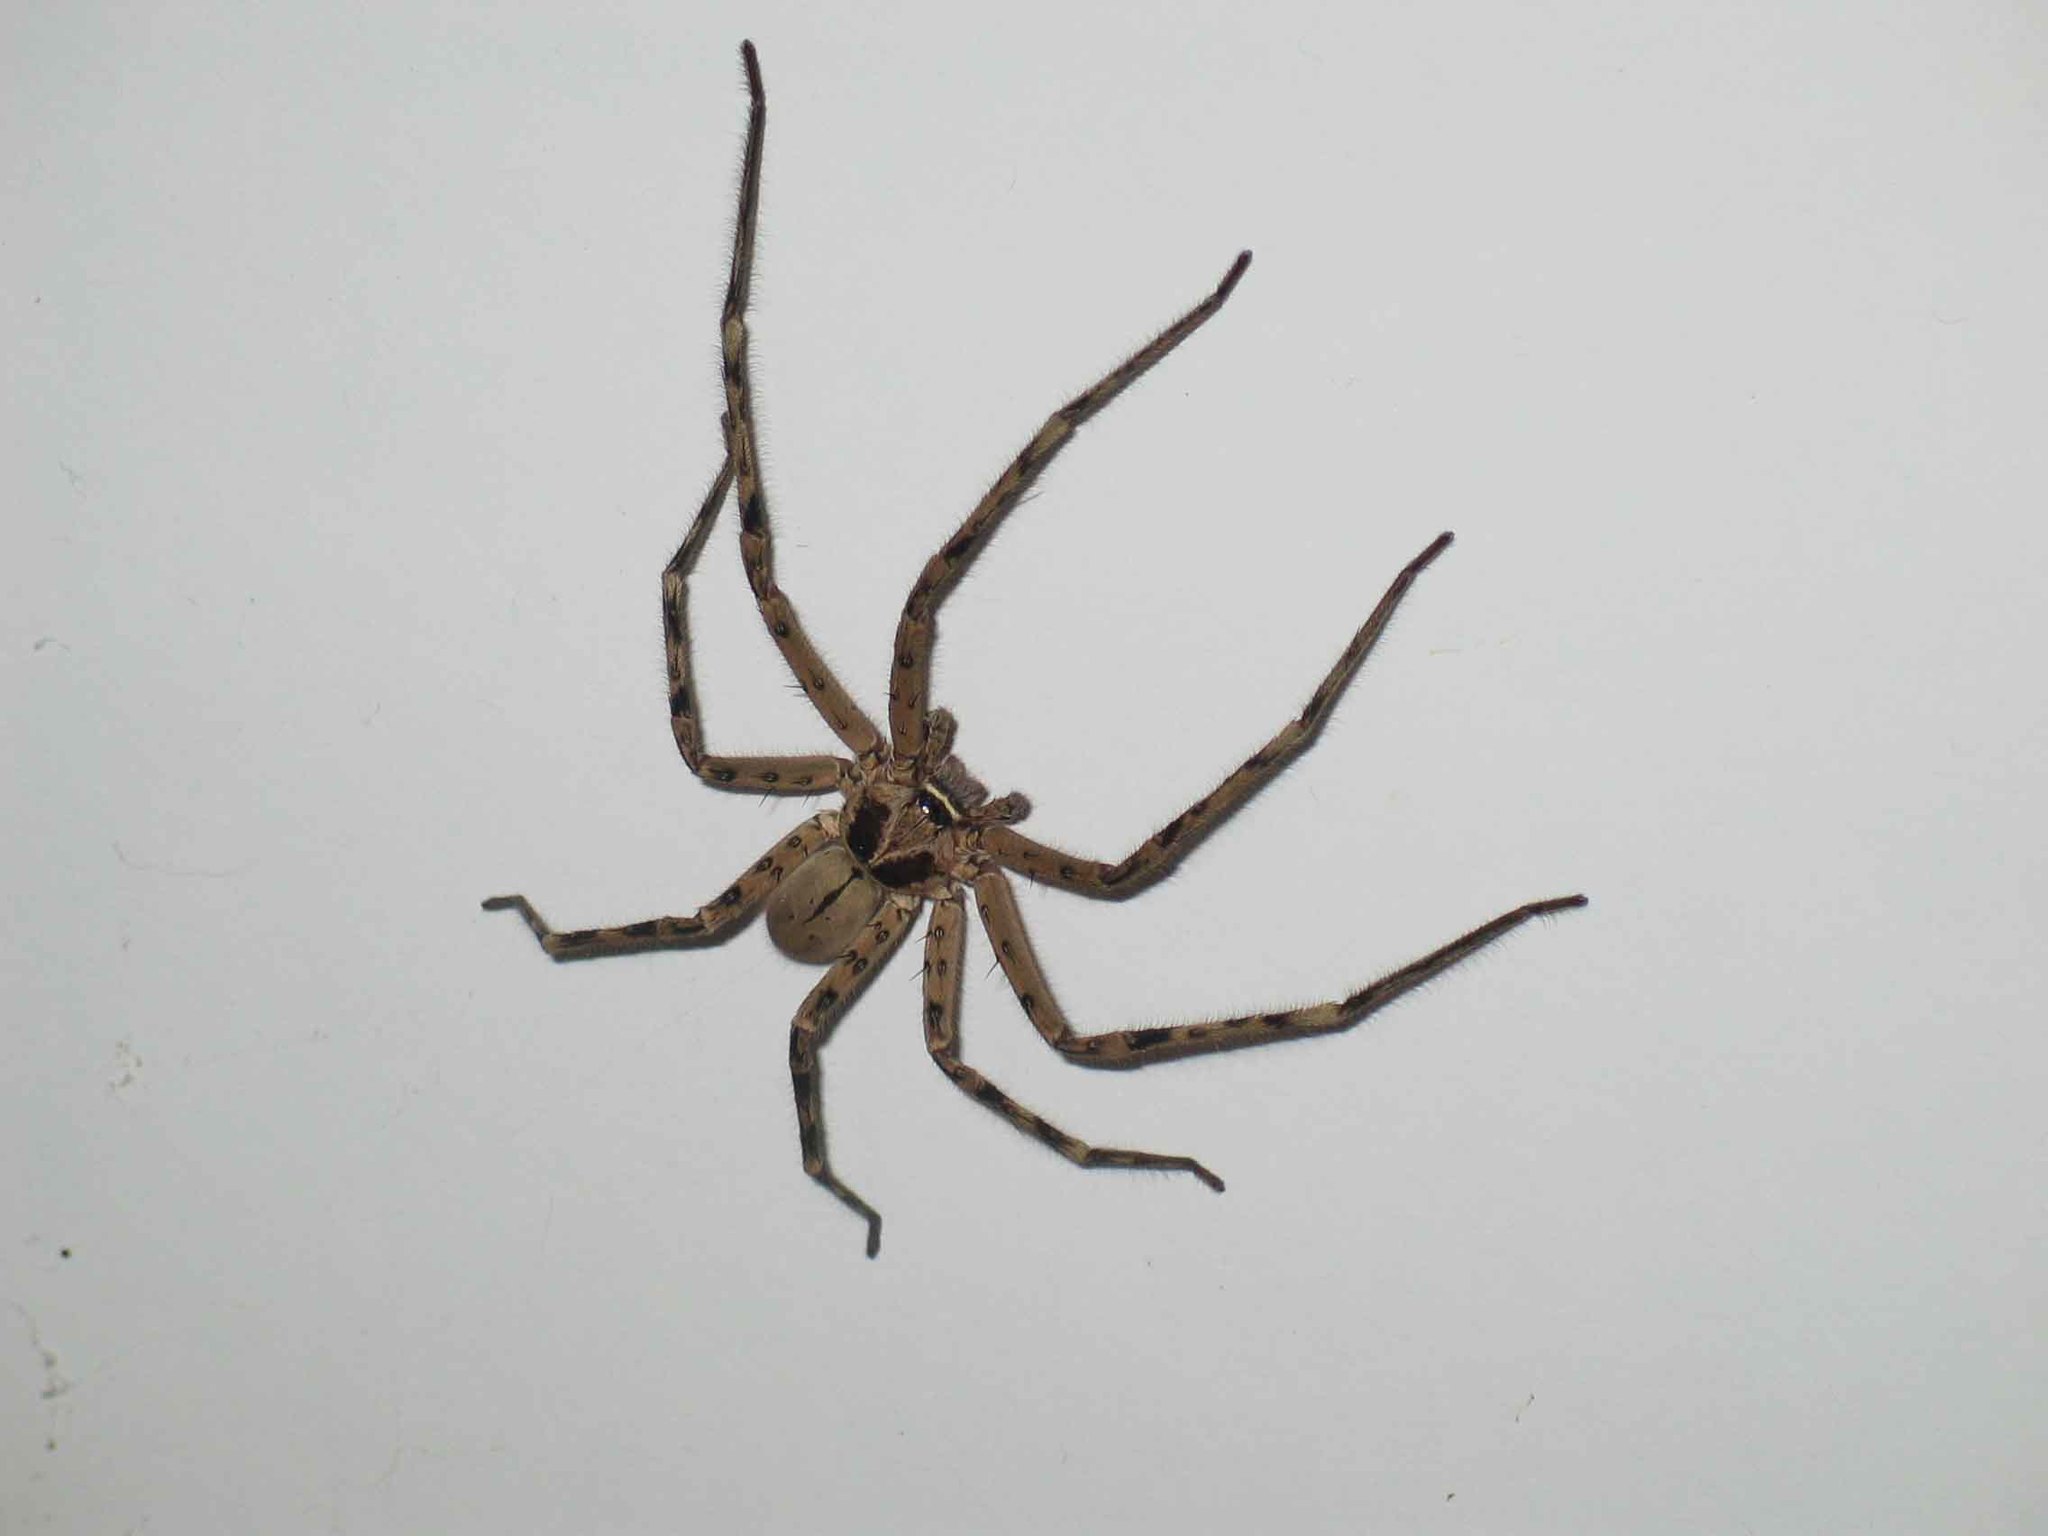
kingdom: Animalia
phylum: Arthropoda
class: Arachnida
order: Araneae
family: Sparassidae
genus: Heteropoda
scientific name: Heteropoda venatoria
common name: Huntsman spider
